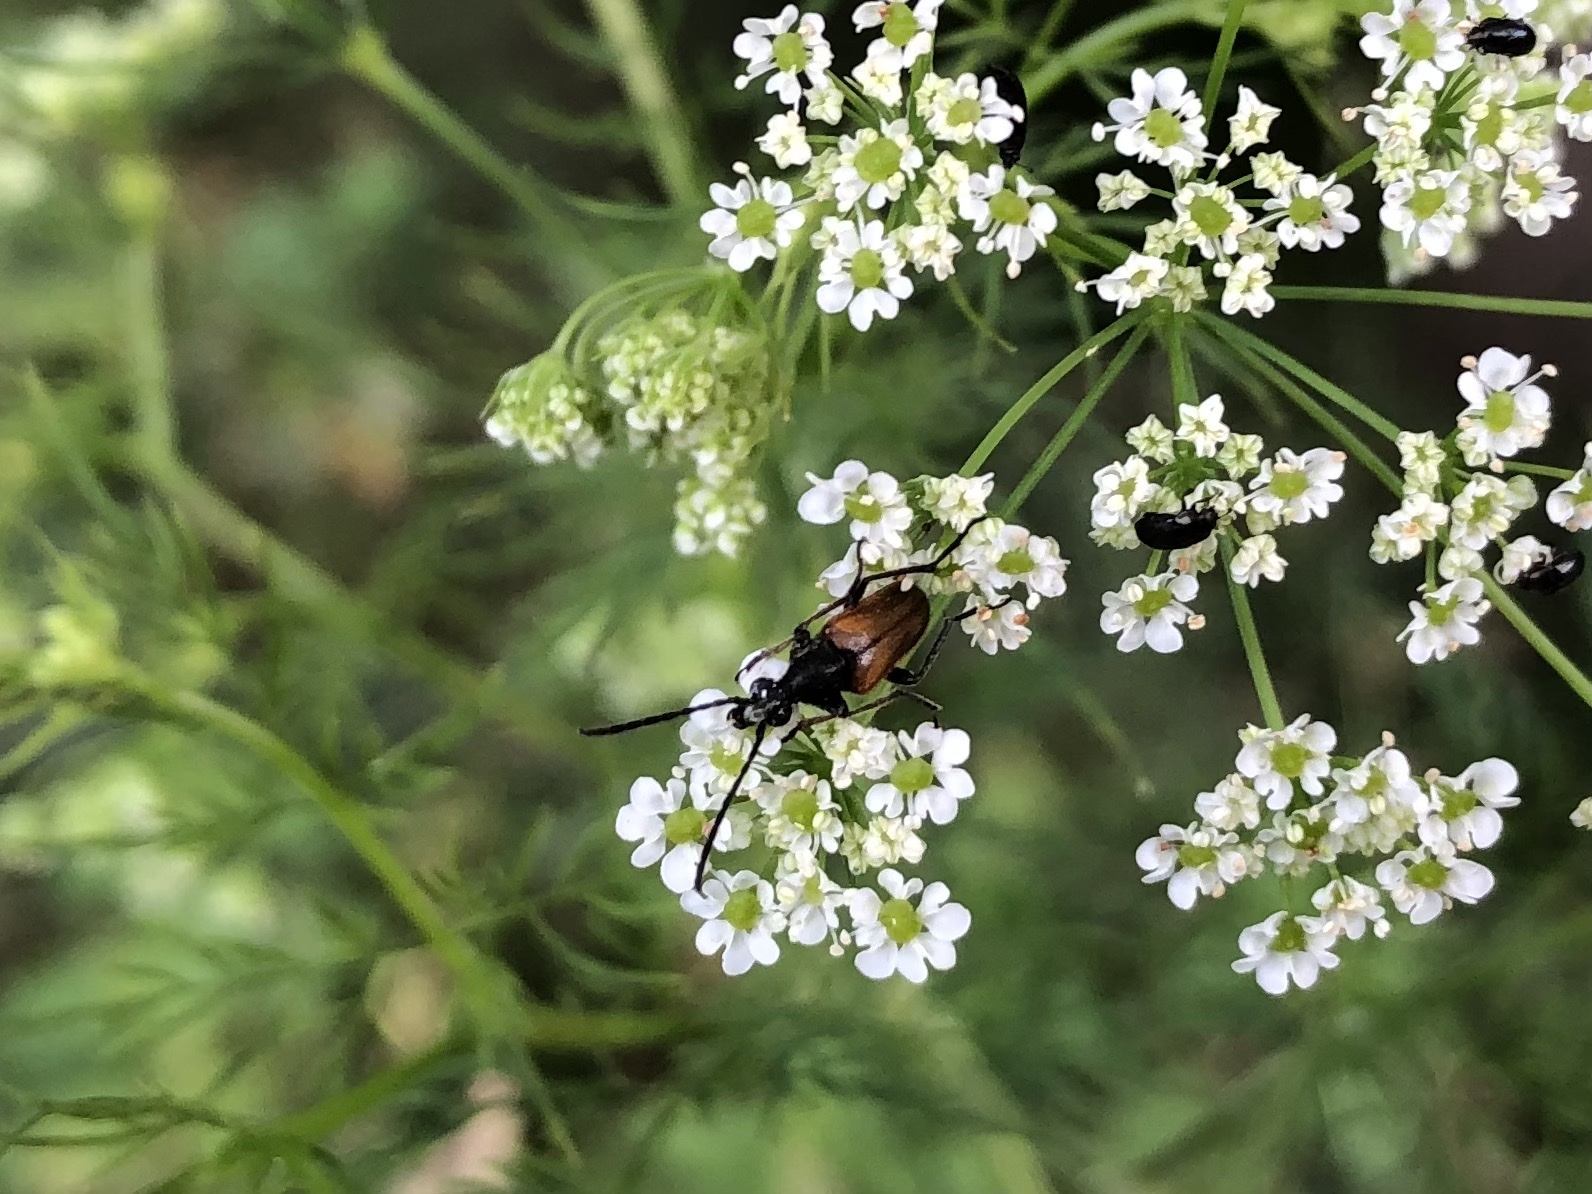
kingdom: Animalia
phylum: Arthropoda
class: Insecta
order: Coleoptera
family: Cerambycidae
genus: Pseudovadonia
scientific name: Pseudovadonia livida
